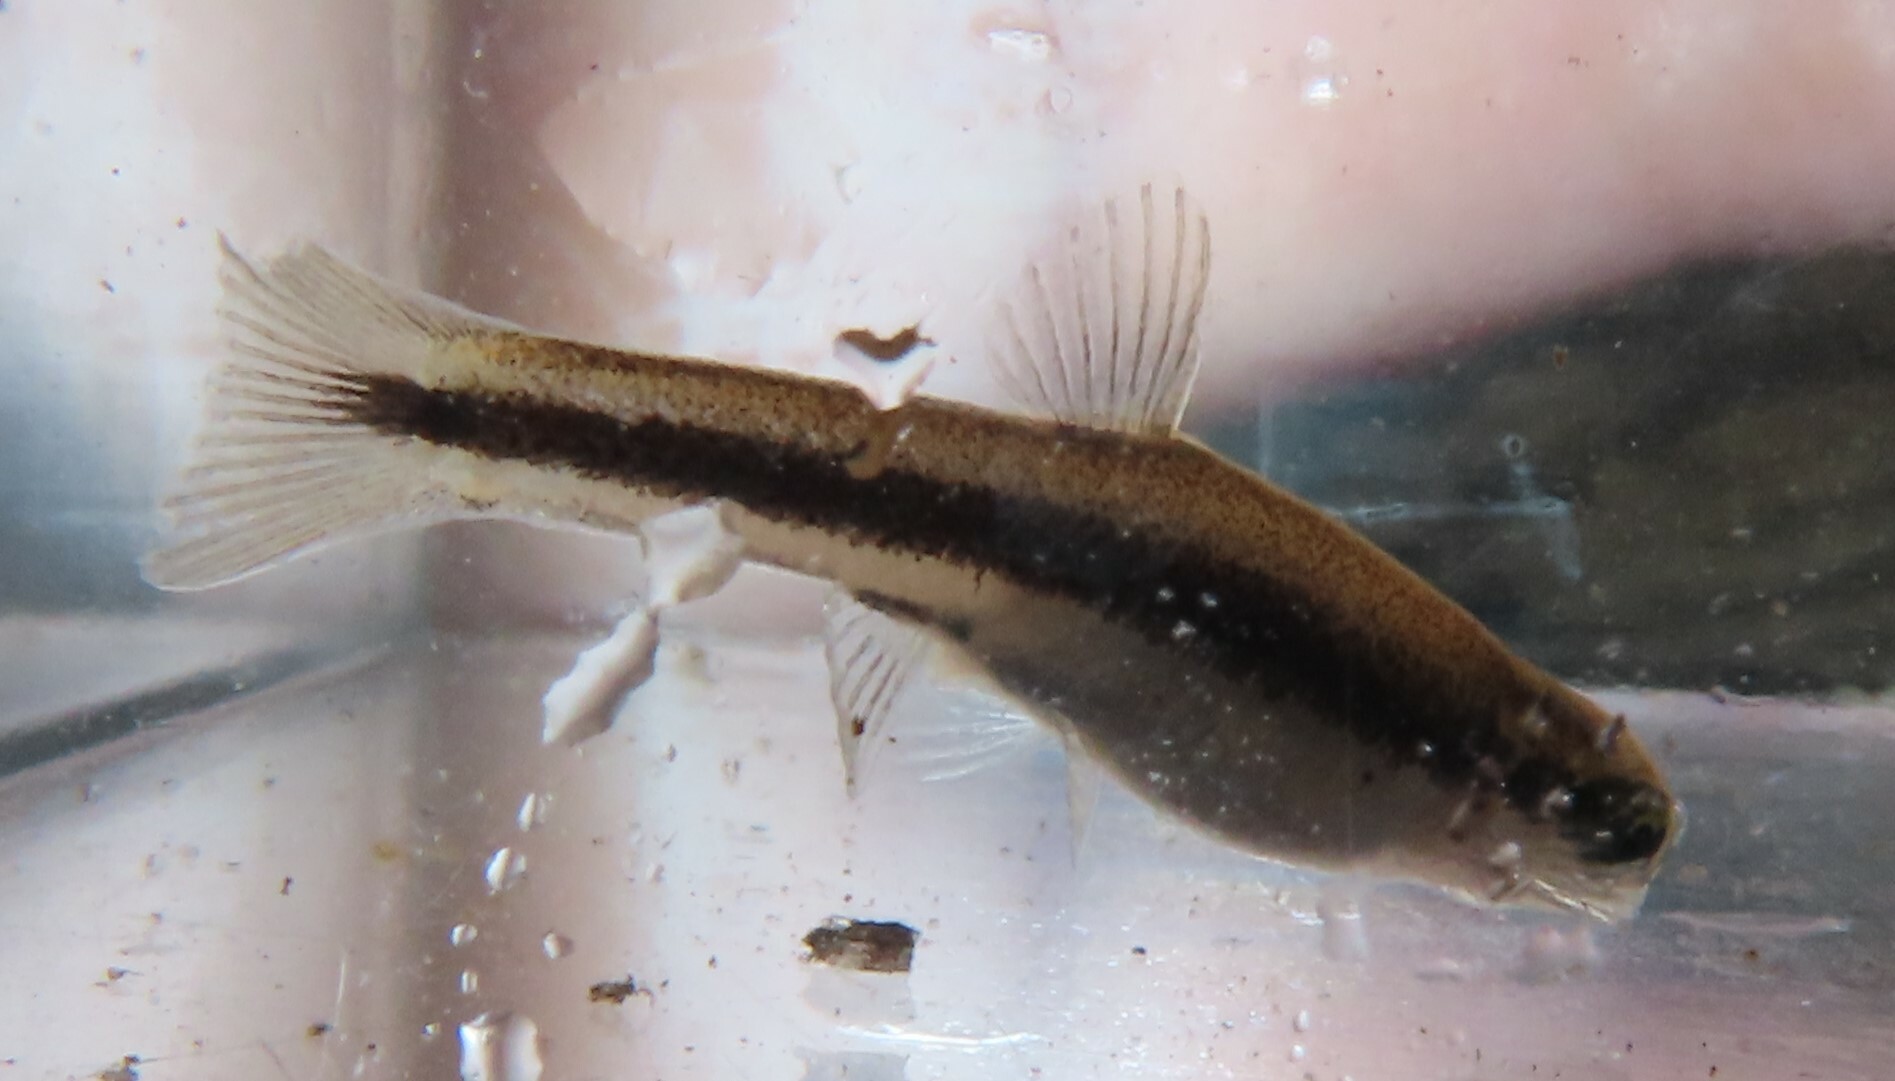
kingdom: Animalia
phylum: Chordata
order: Cypriniformes
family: Cyprinidae
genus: Rhinichthys
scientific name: Rhinichthys atratulus
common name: Eastern blacknose dace
